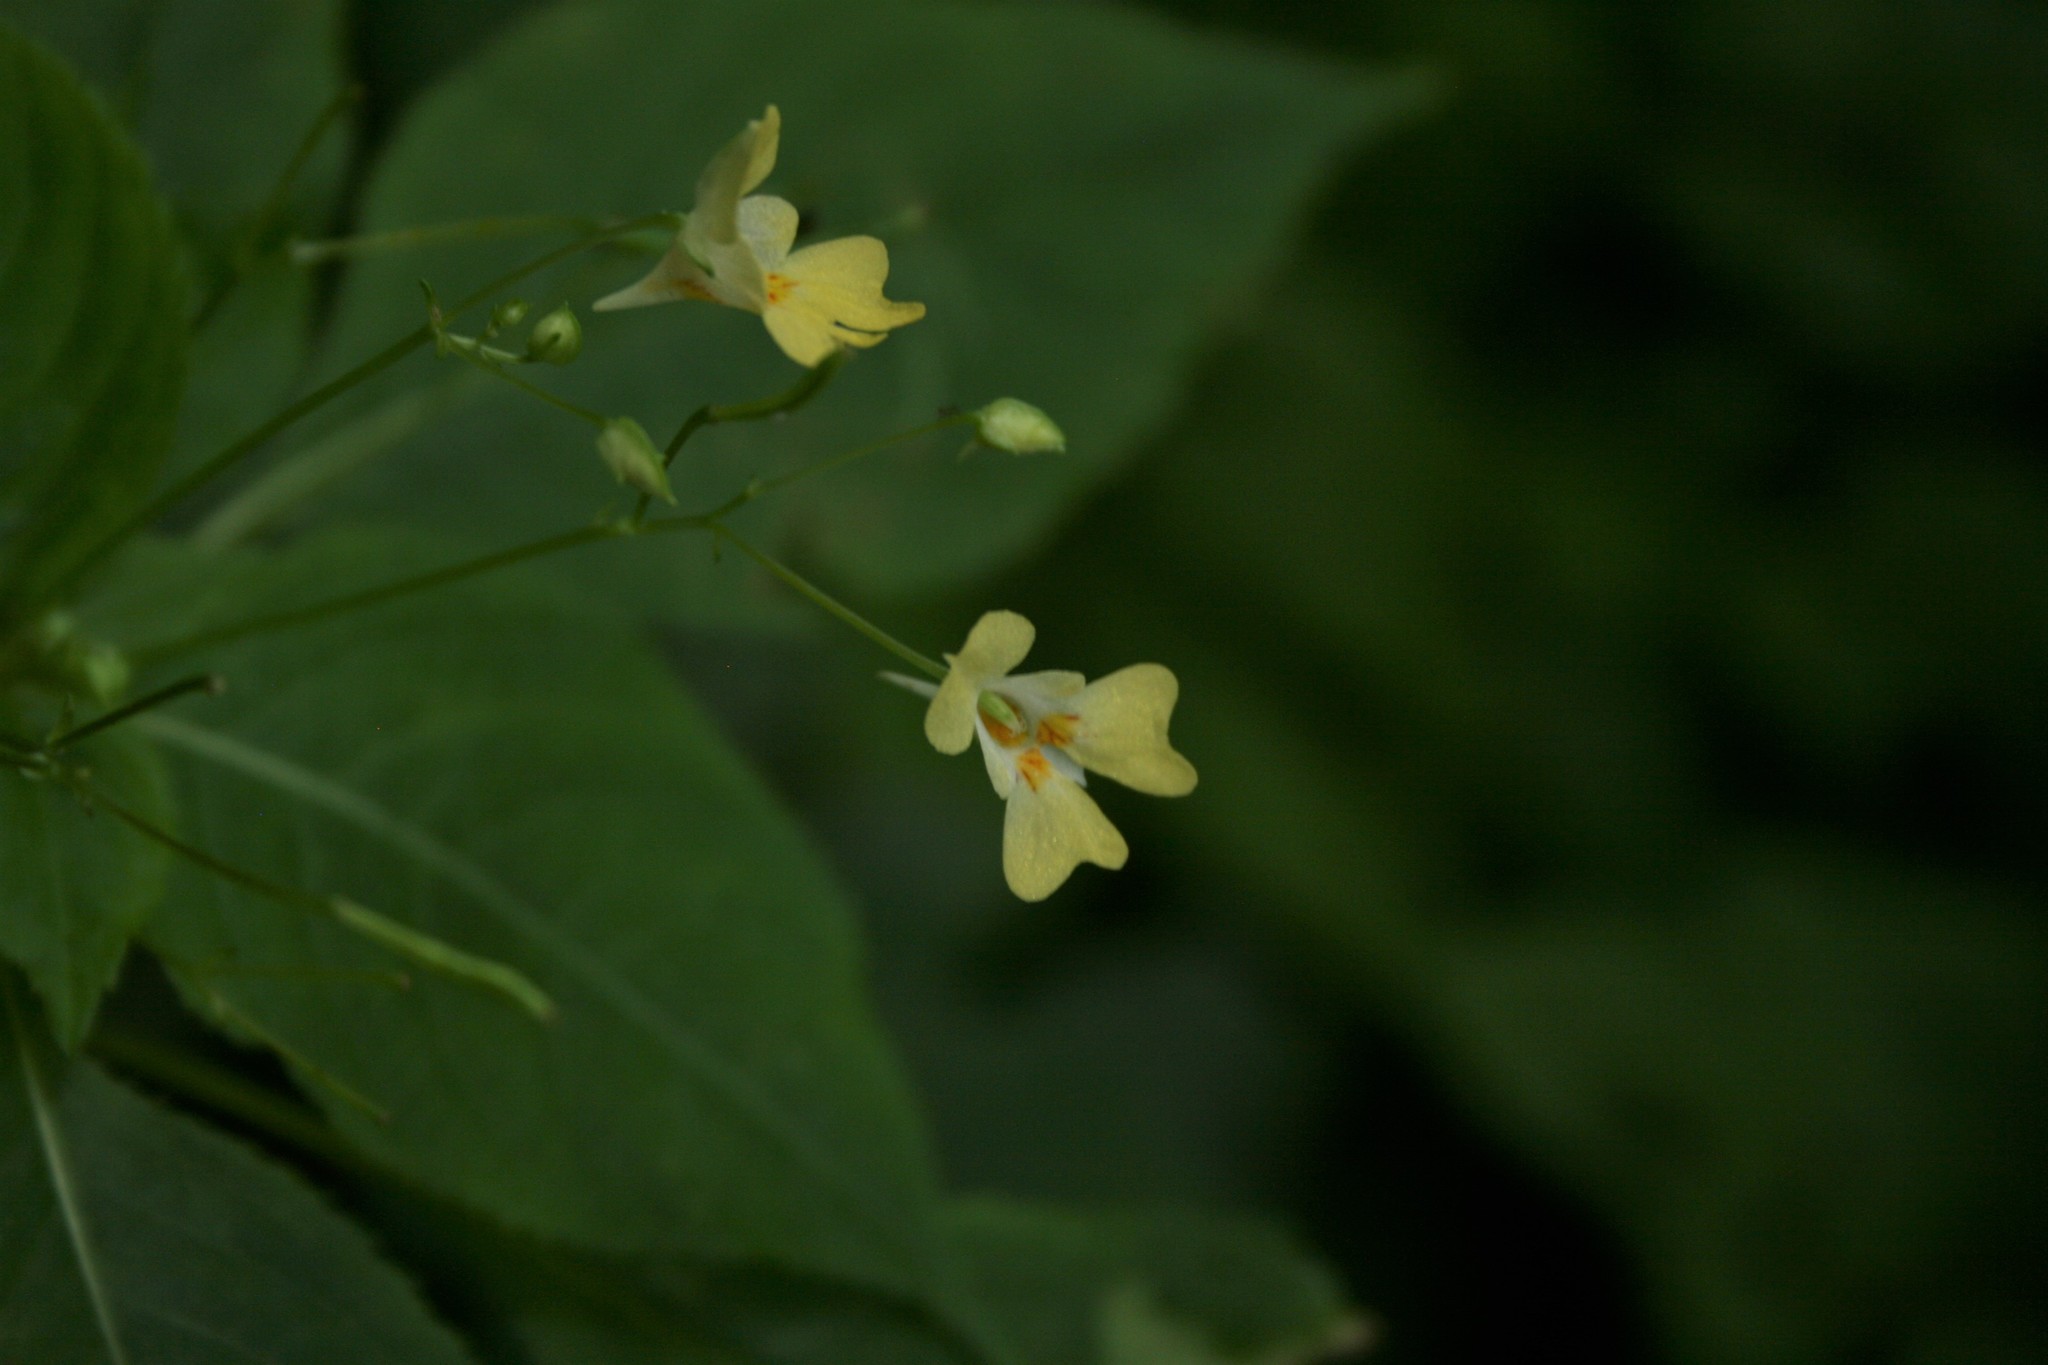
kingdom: Plantae
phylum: Tracheophyta
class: Magnoliopsida
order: Ericales
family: Balsaminaceae
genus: Impatiens
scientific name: Impatiens parviflora
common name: Small balsam
